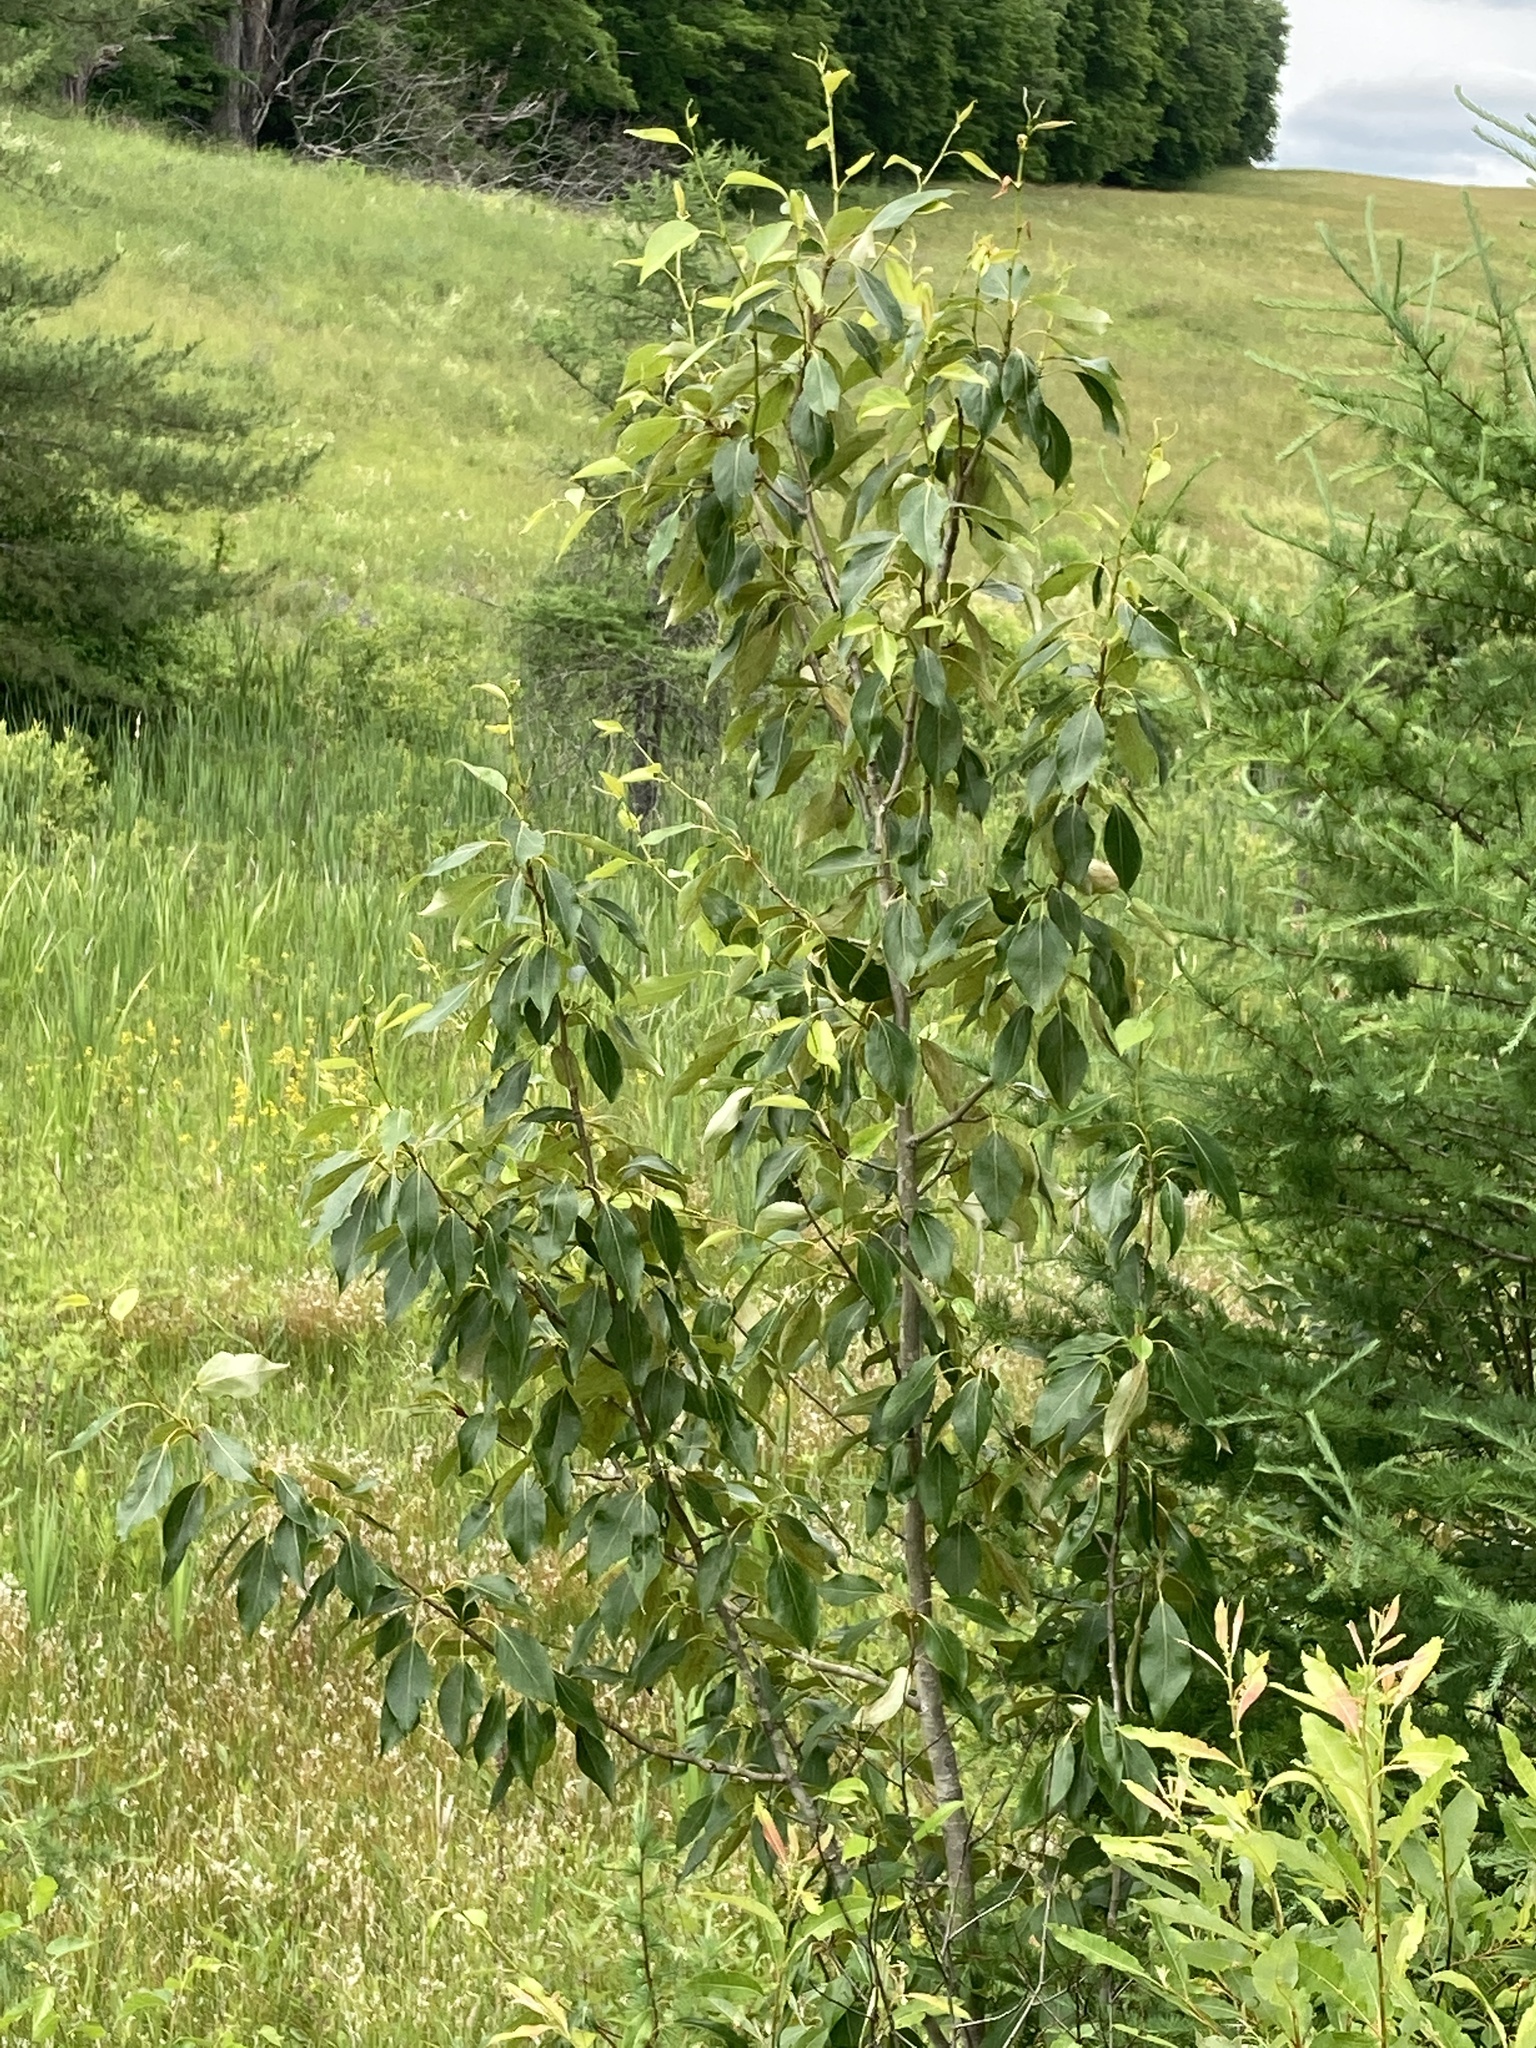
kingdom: Plantae
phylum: Tracheophyta
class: Magnoliopsida
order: Malpighiales
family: Salicaceae
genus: Populus
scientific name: Populus balsamifera
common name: Balsam poplar
